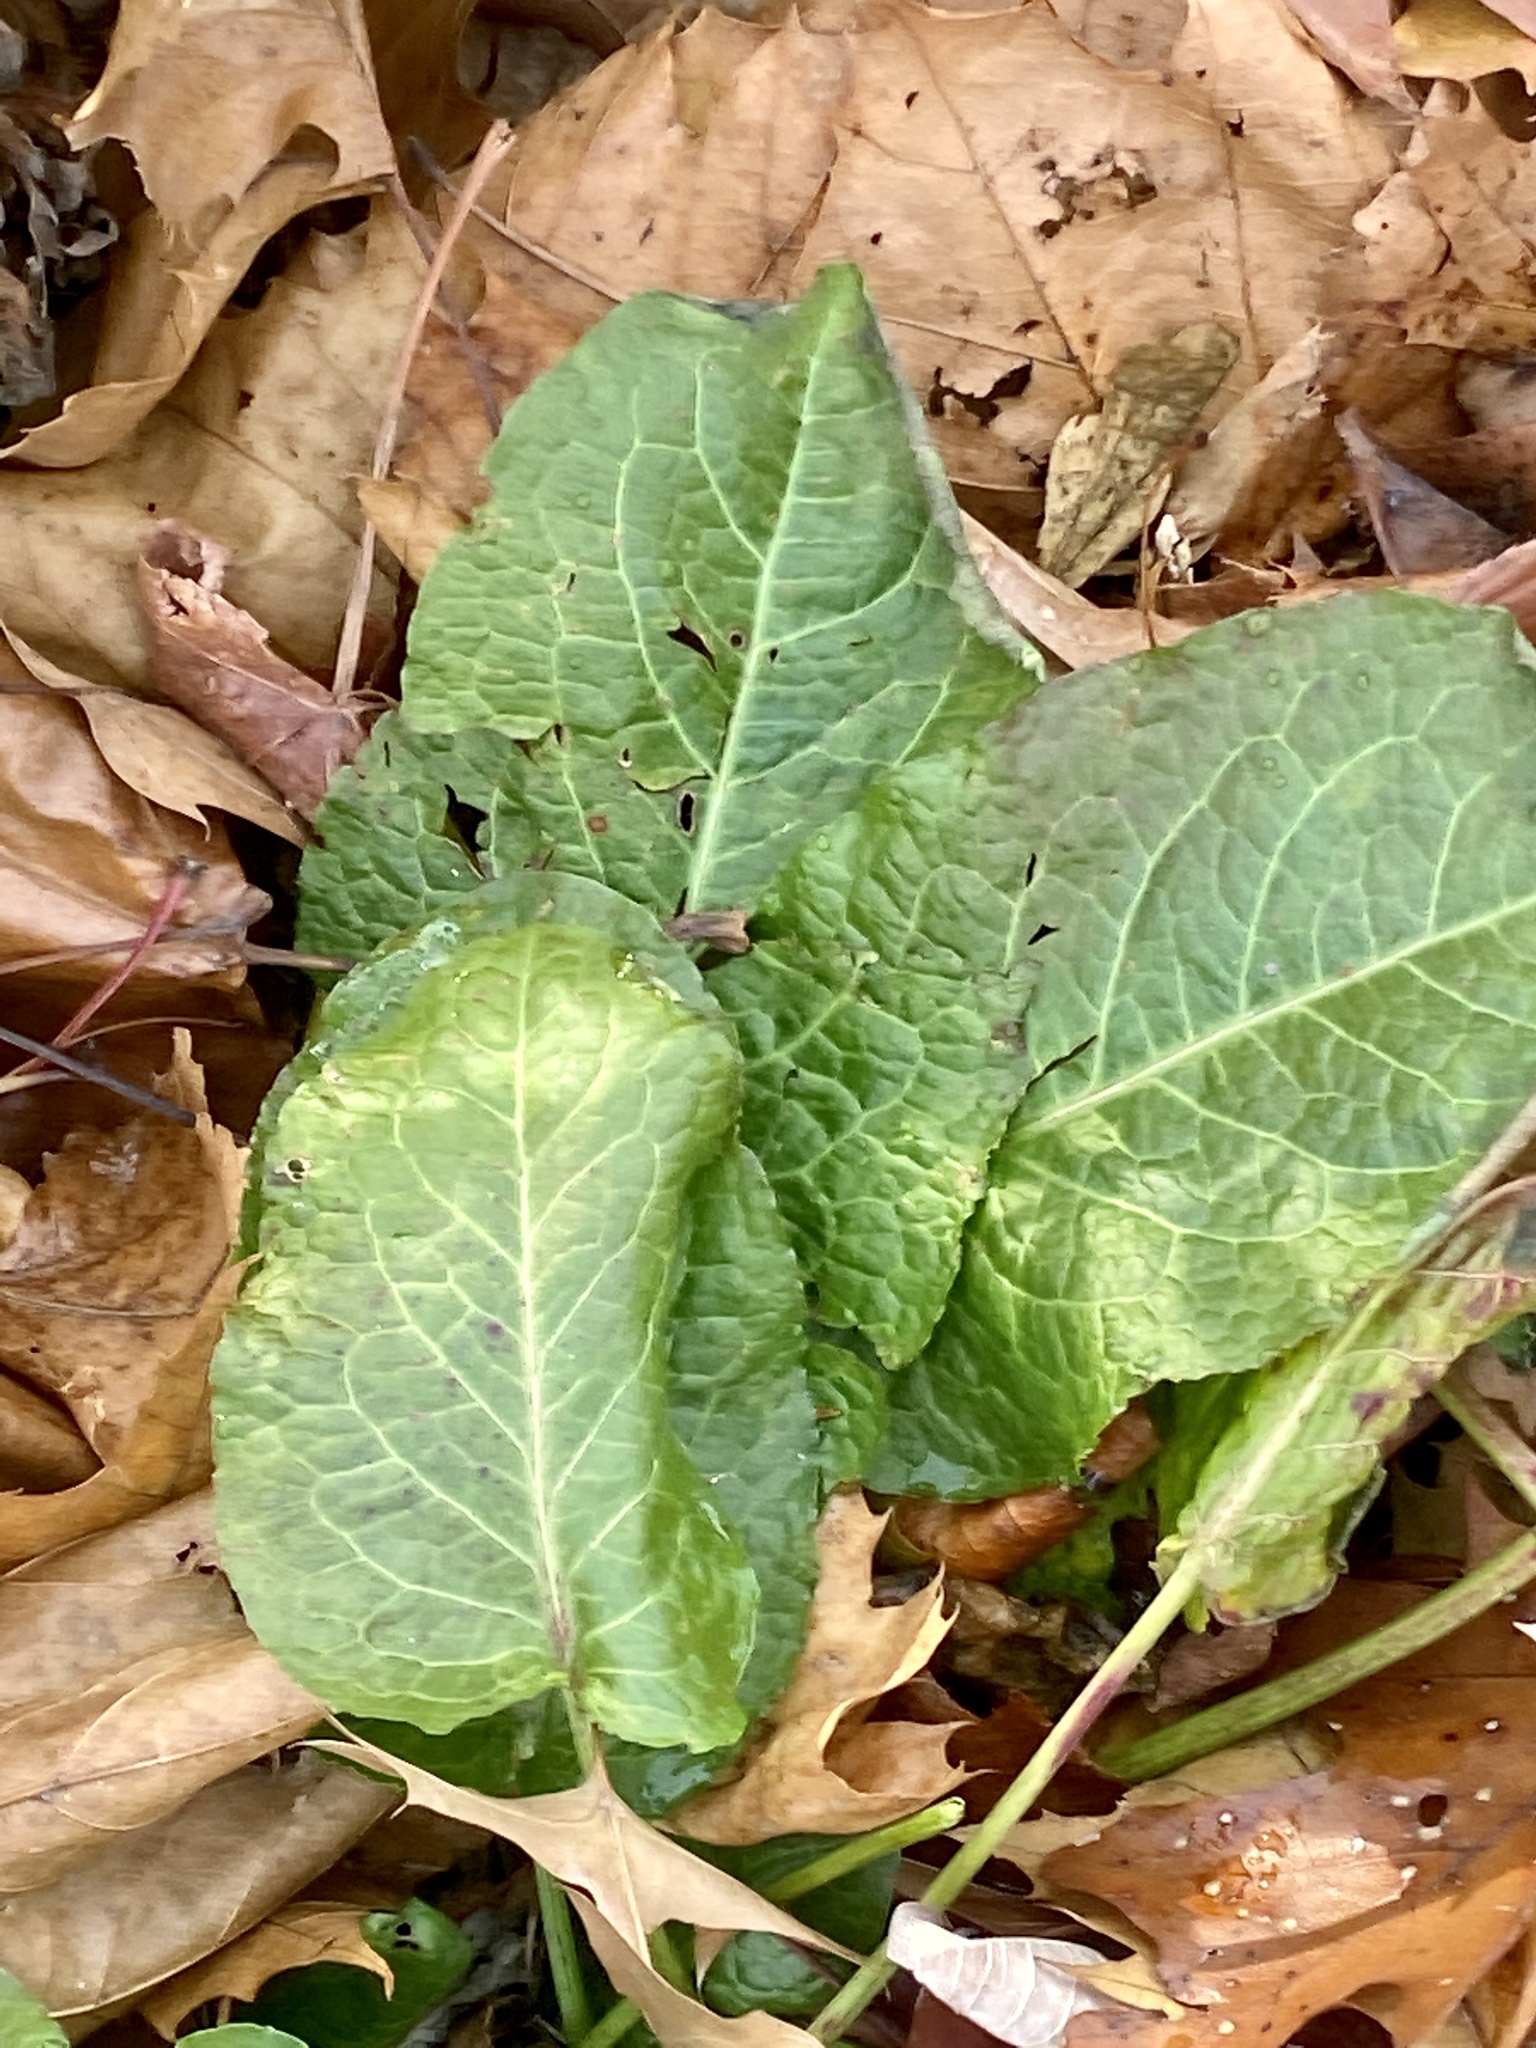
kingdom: Plantae
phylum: Tracheophyta
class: Magnoliopsida
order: Caryophyllales
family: Polygonaceae
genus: Rumex
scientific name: Rumex obtusifolius
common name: Bitter dock
